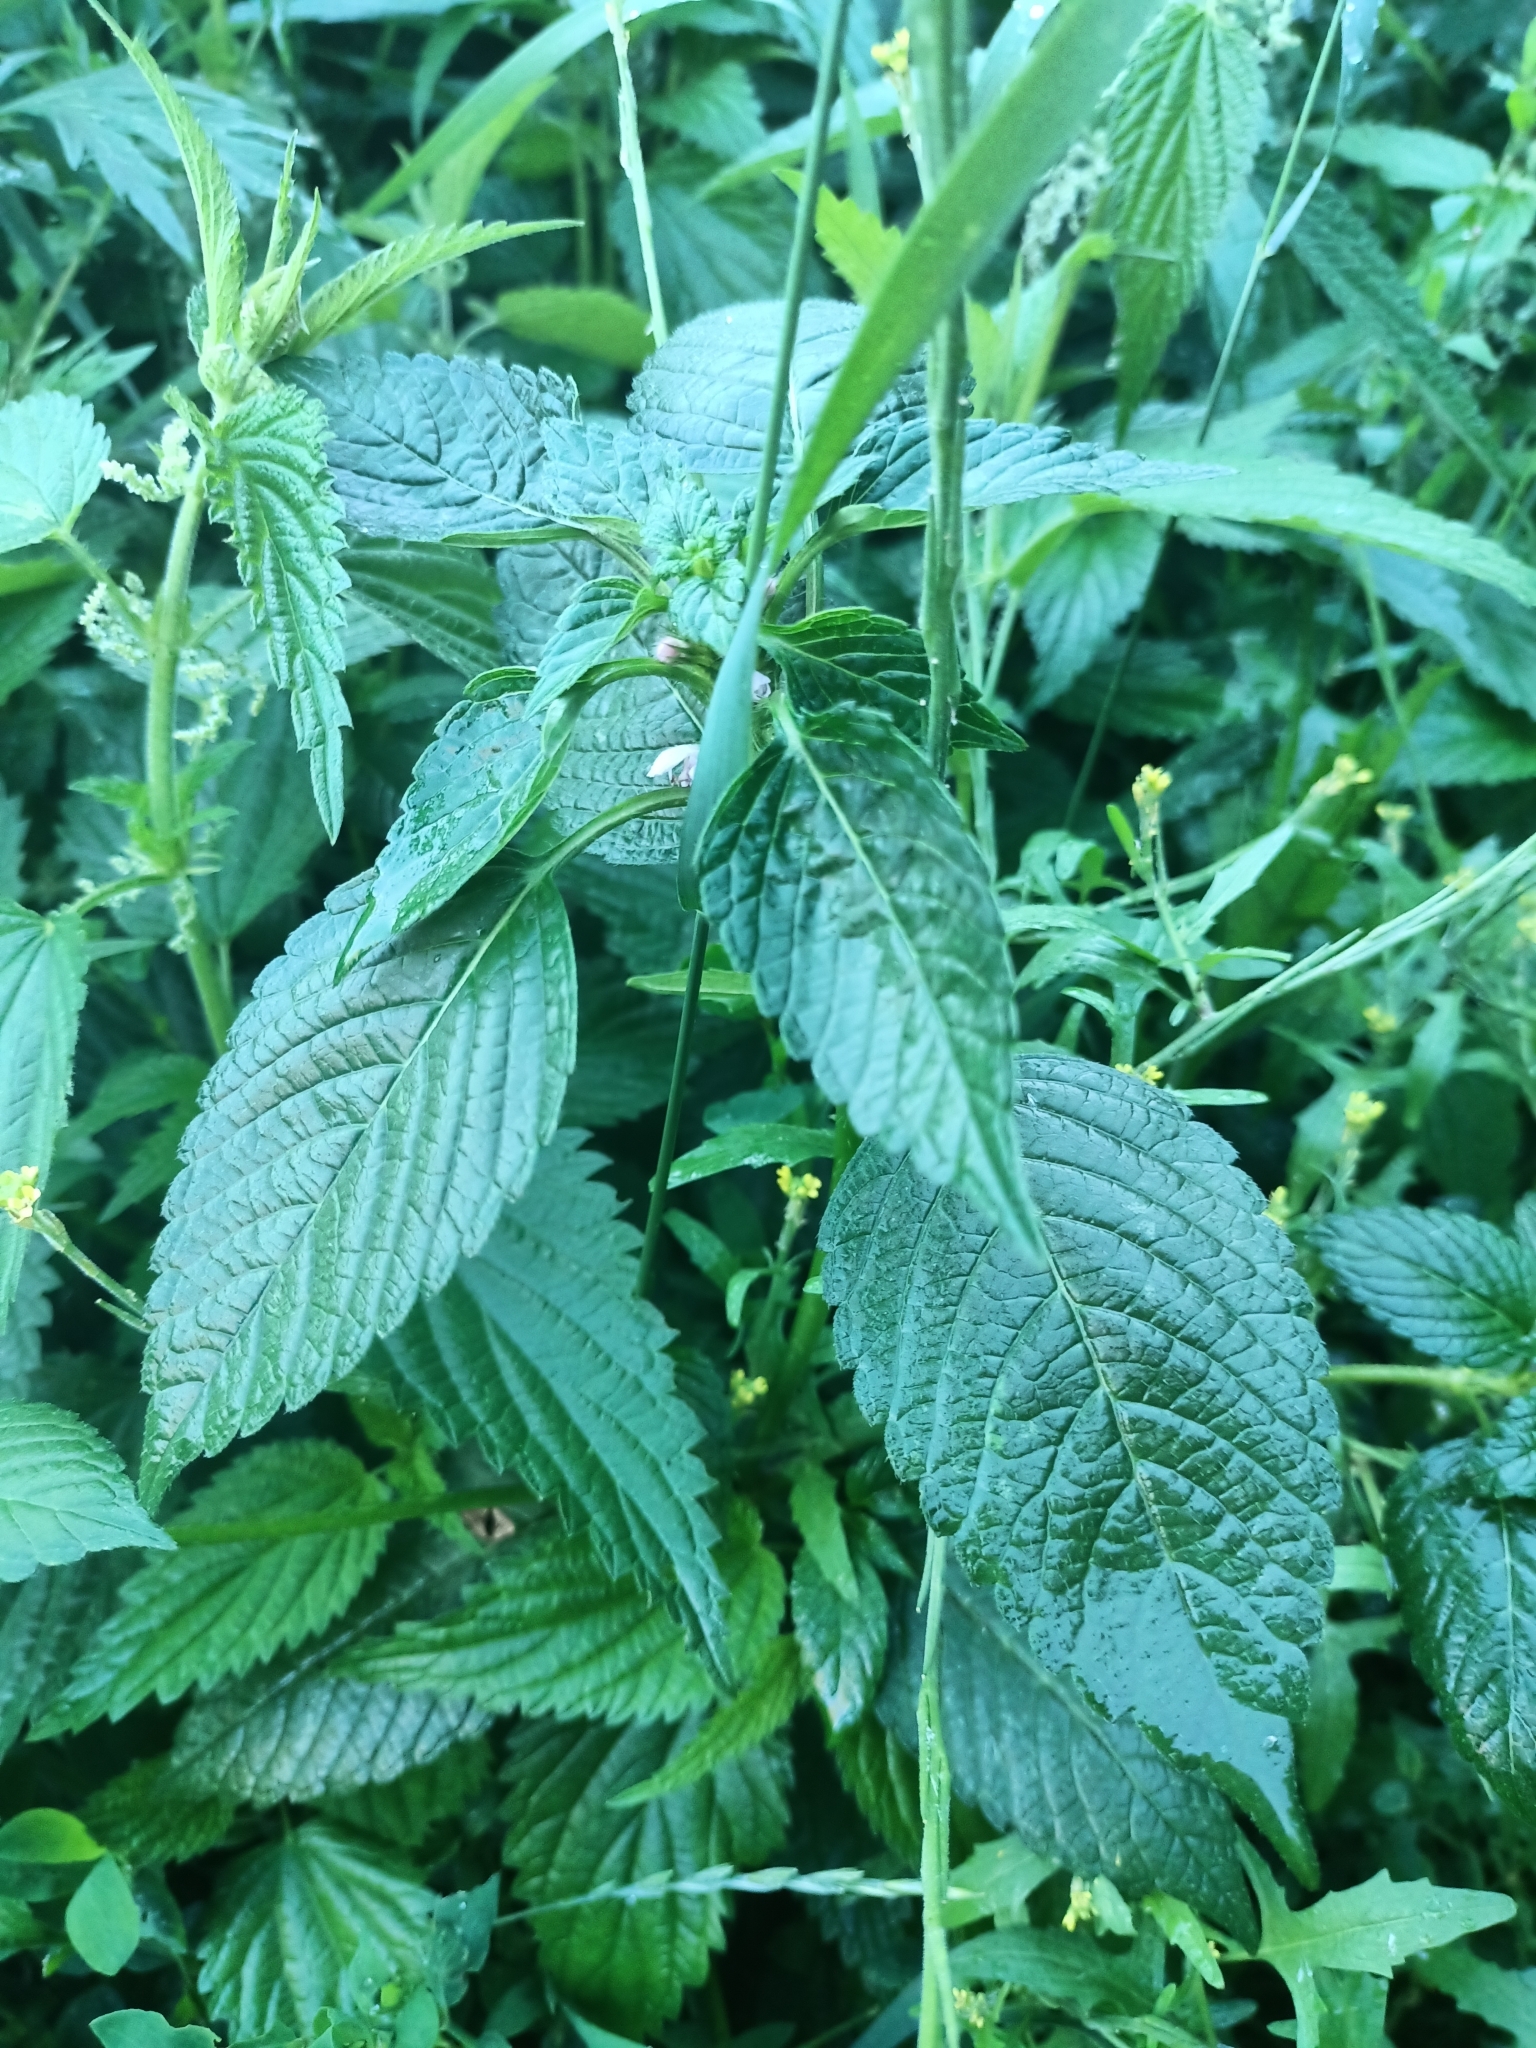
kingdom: Plantae
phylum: Tracheophyta
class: Magnoliopsida
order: Lamiales
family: Lamiaceae
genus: Galeopsis
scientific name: Galeopsis tetrahit
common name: Common hemp-nettle
